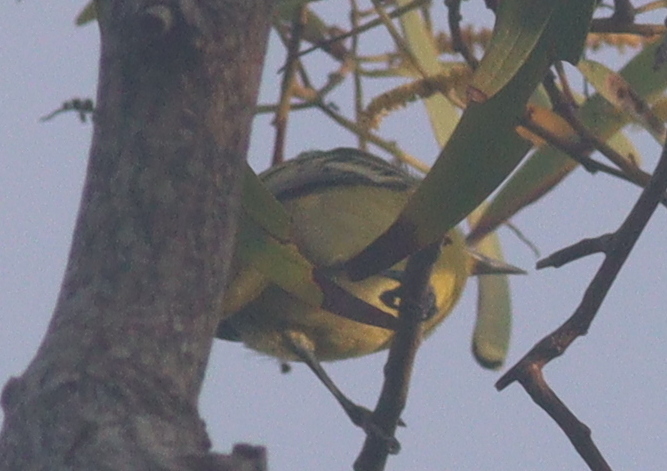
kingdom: Animalia
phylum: Chordata
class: Aves
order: Passeriformes
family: Aegithinidae
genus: Aegithina
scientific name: Aegithina tiphia
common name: Common iora
